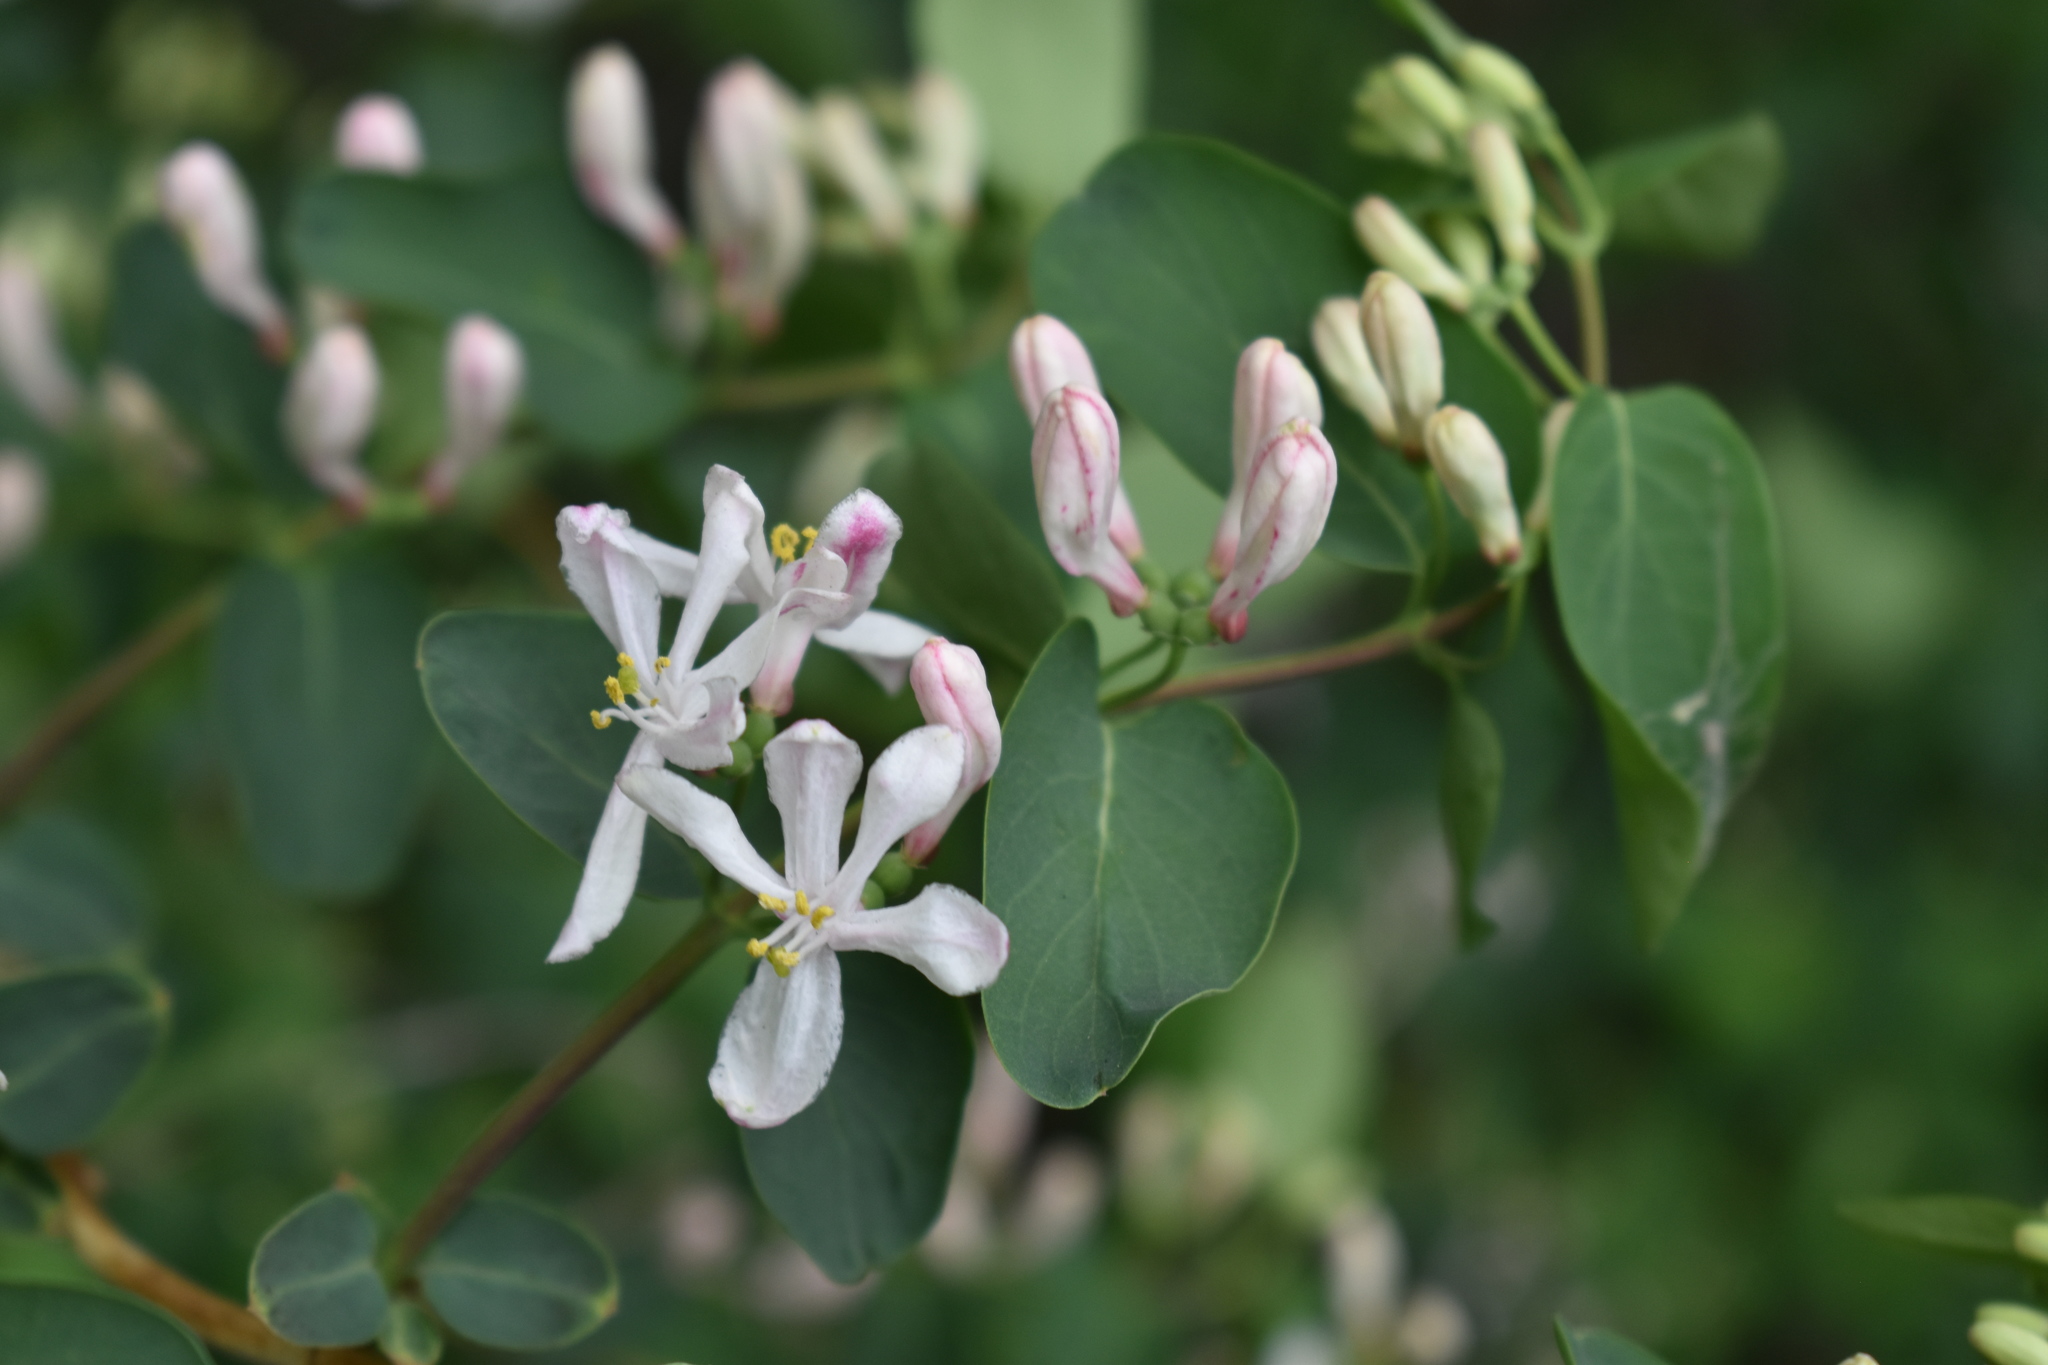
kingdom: Plantae
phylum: Tracheophyta
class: Magnoliopsida
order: Dipsacales
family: Caprifoliaceae
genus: Lonicera
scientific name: Lonicera tatarica
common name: Tatarian honeysuckle
